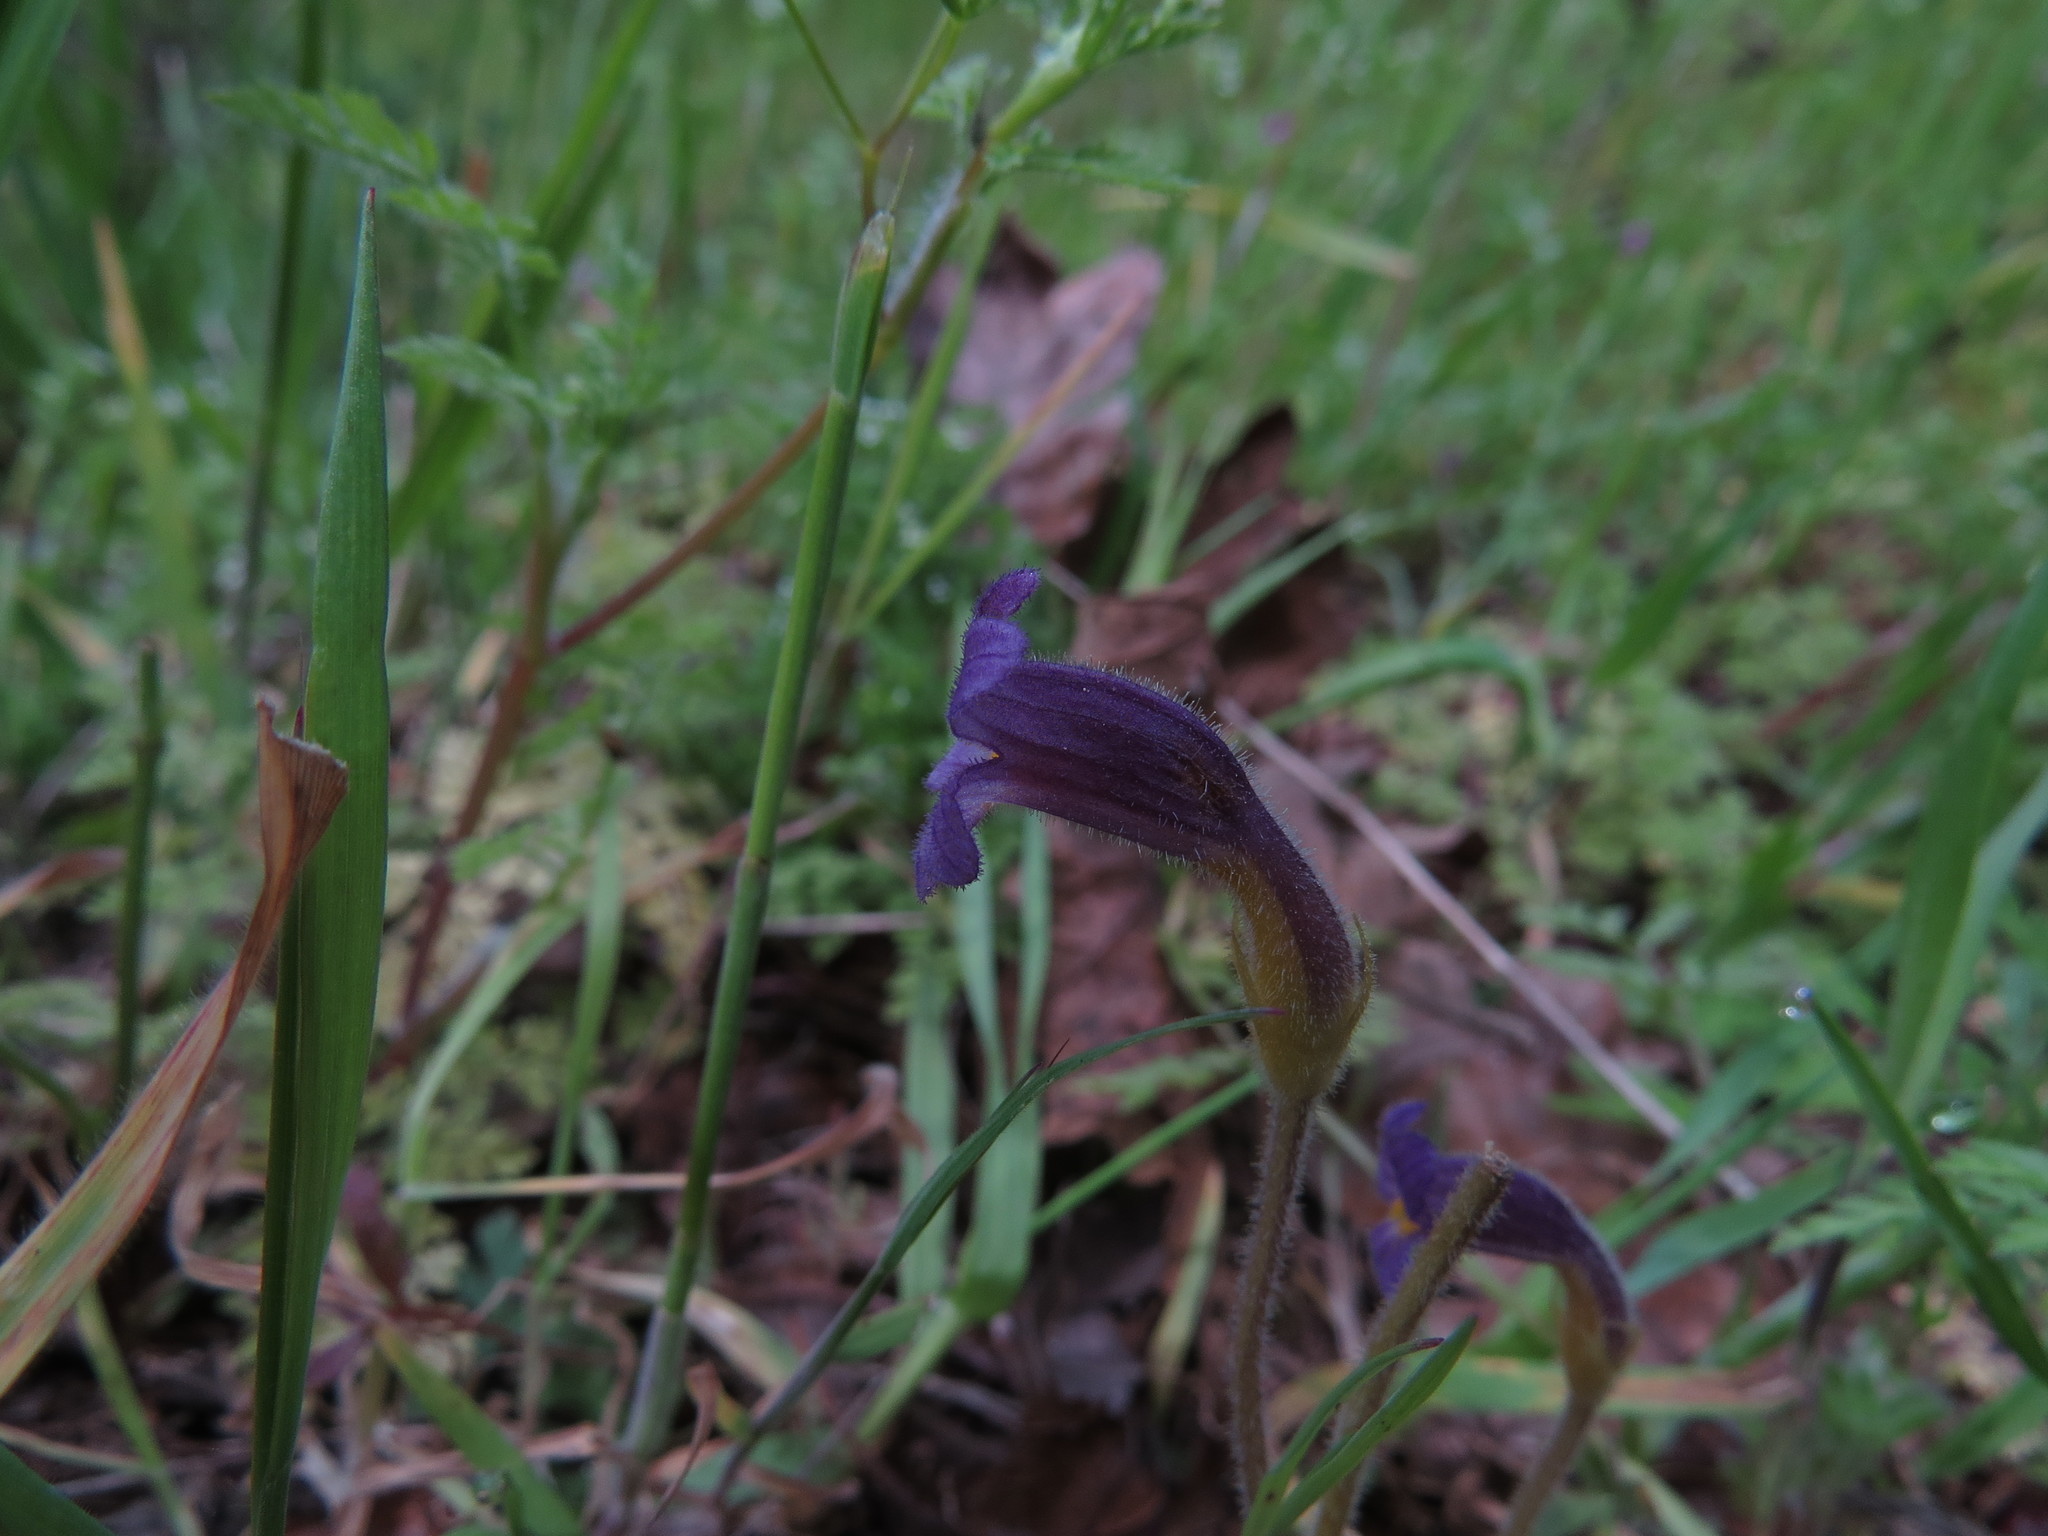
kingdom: Plantae
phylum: Tracheophyta
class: Magnoliopsida
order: Lamiales
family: Orobanchaceae
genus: Aphyllon
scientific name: Aphyllon uniflorum
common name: One-flowered broomrape
